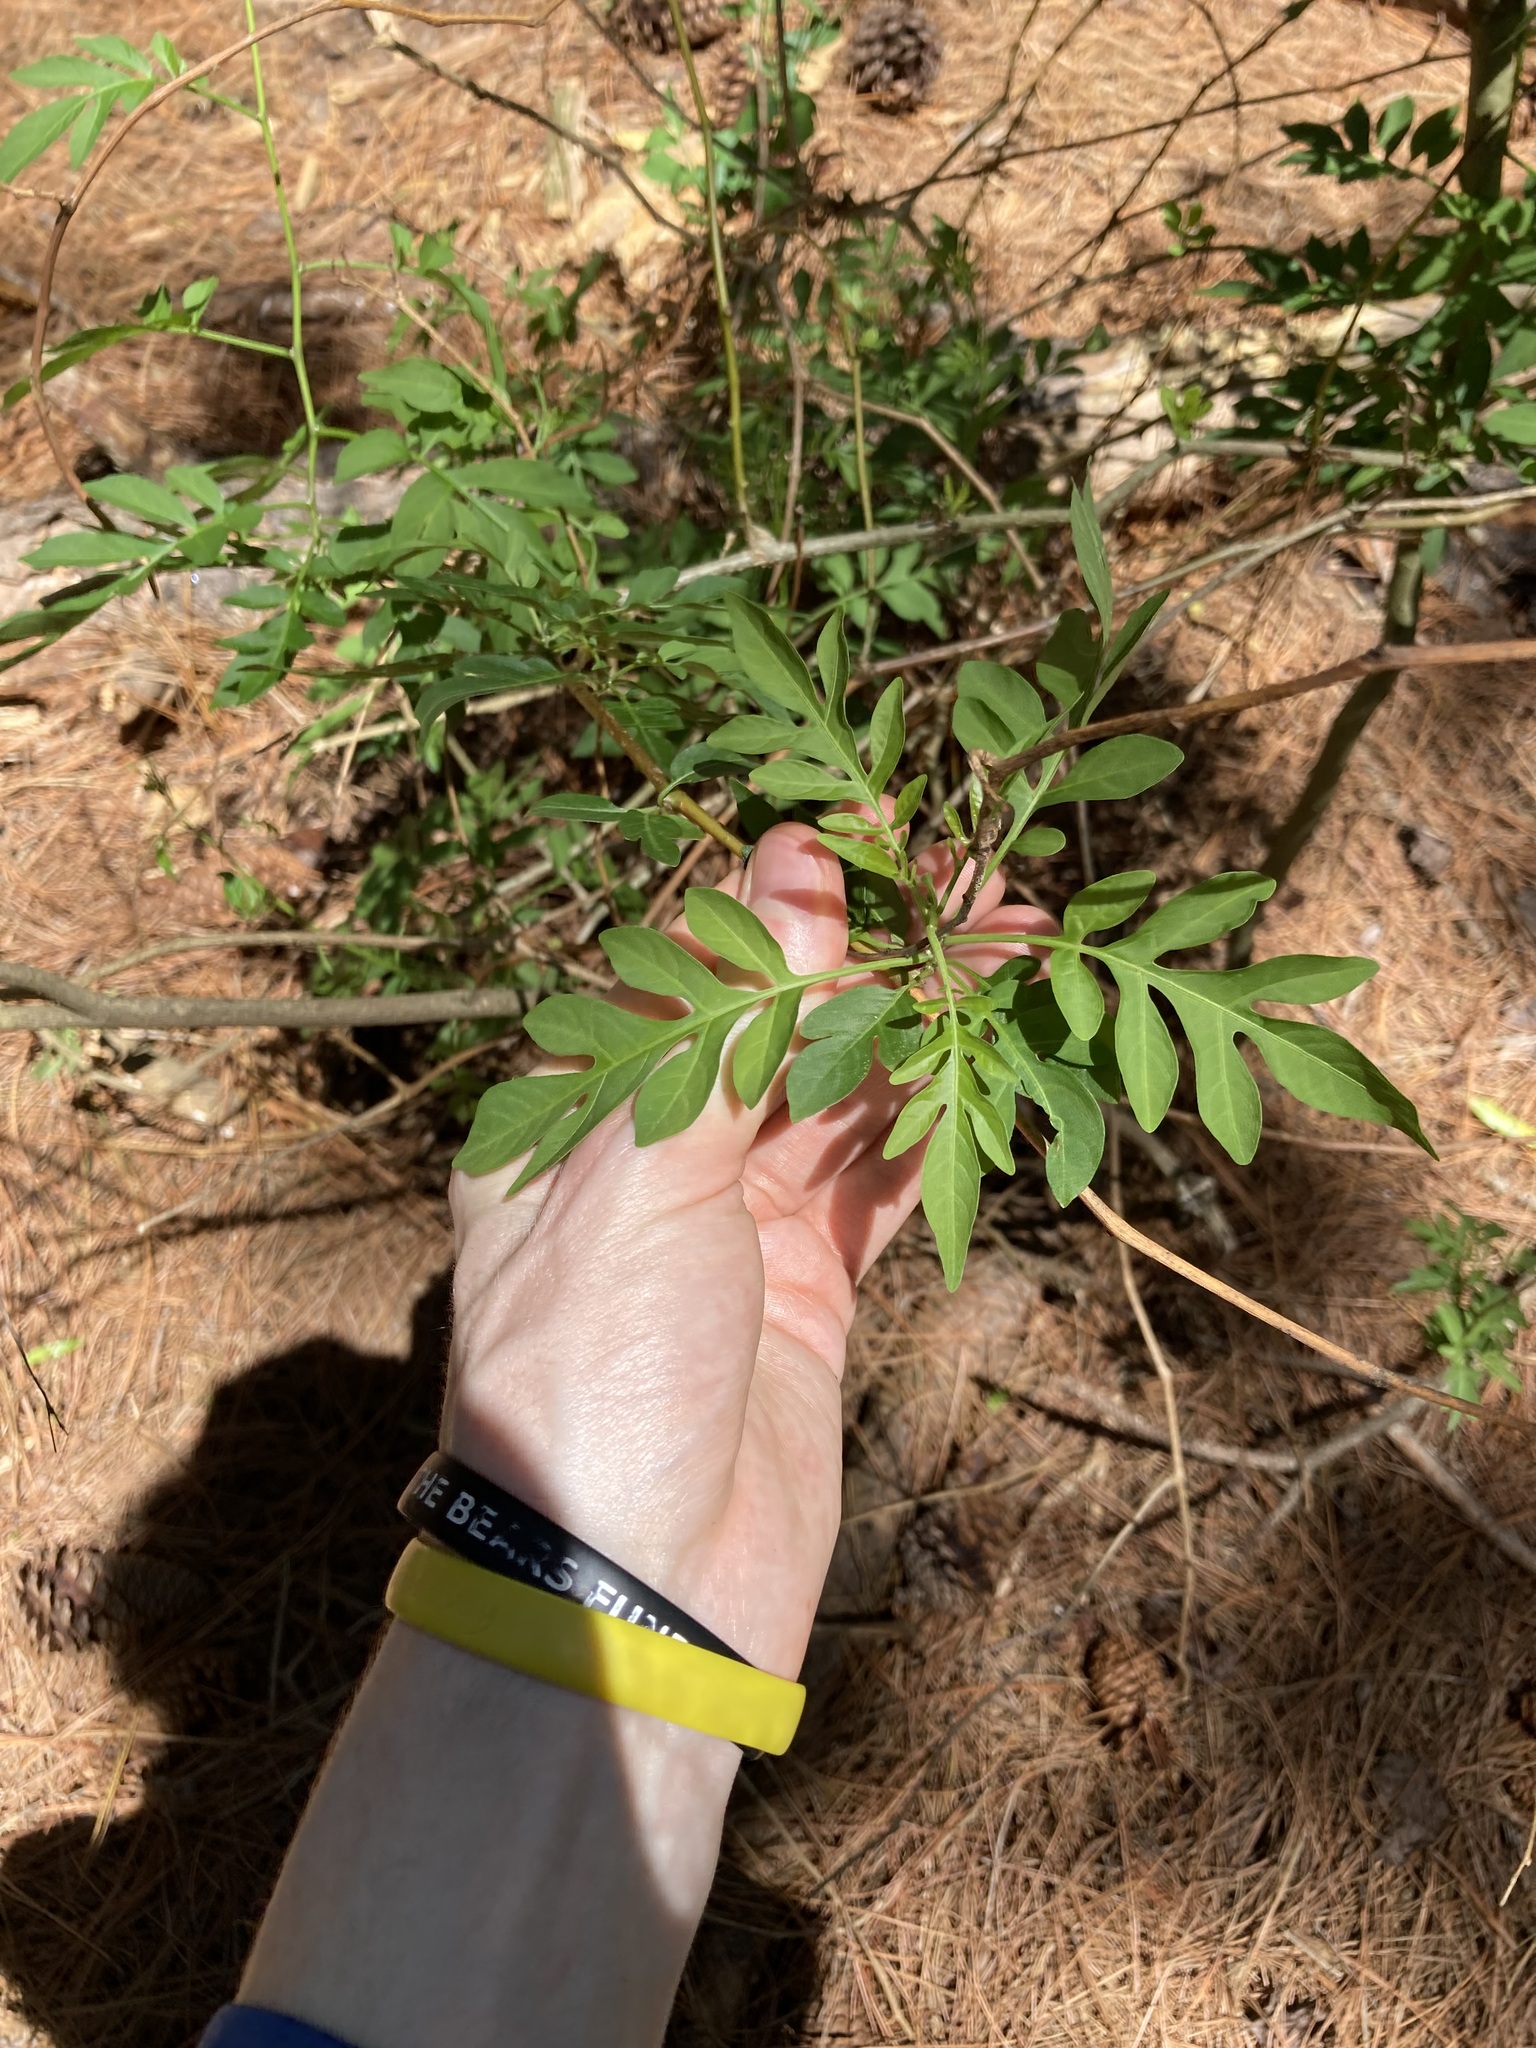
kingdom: Plantae
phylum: Tracheophyta
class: Magnoliopsida
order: Solanales
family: Solanaceae
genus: Solanum
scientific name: Solanum seaforthianum
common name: Brazilian nightshade
